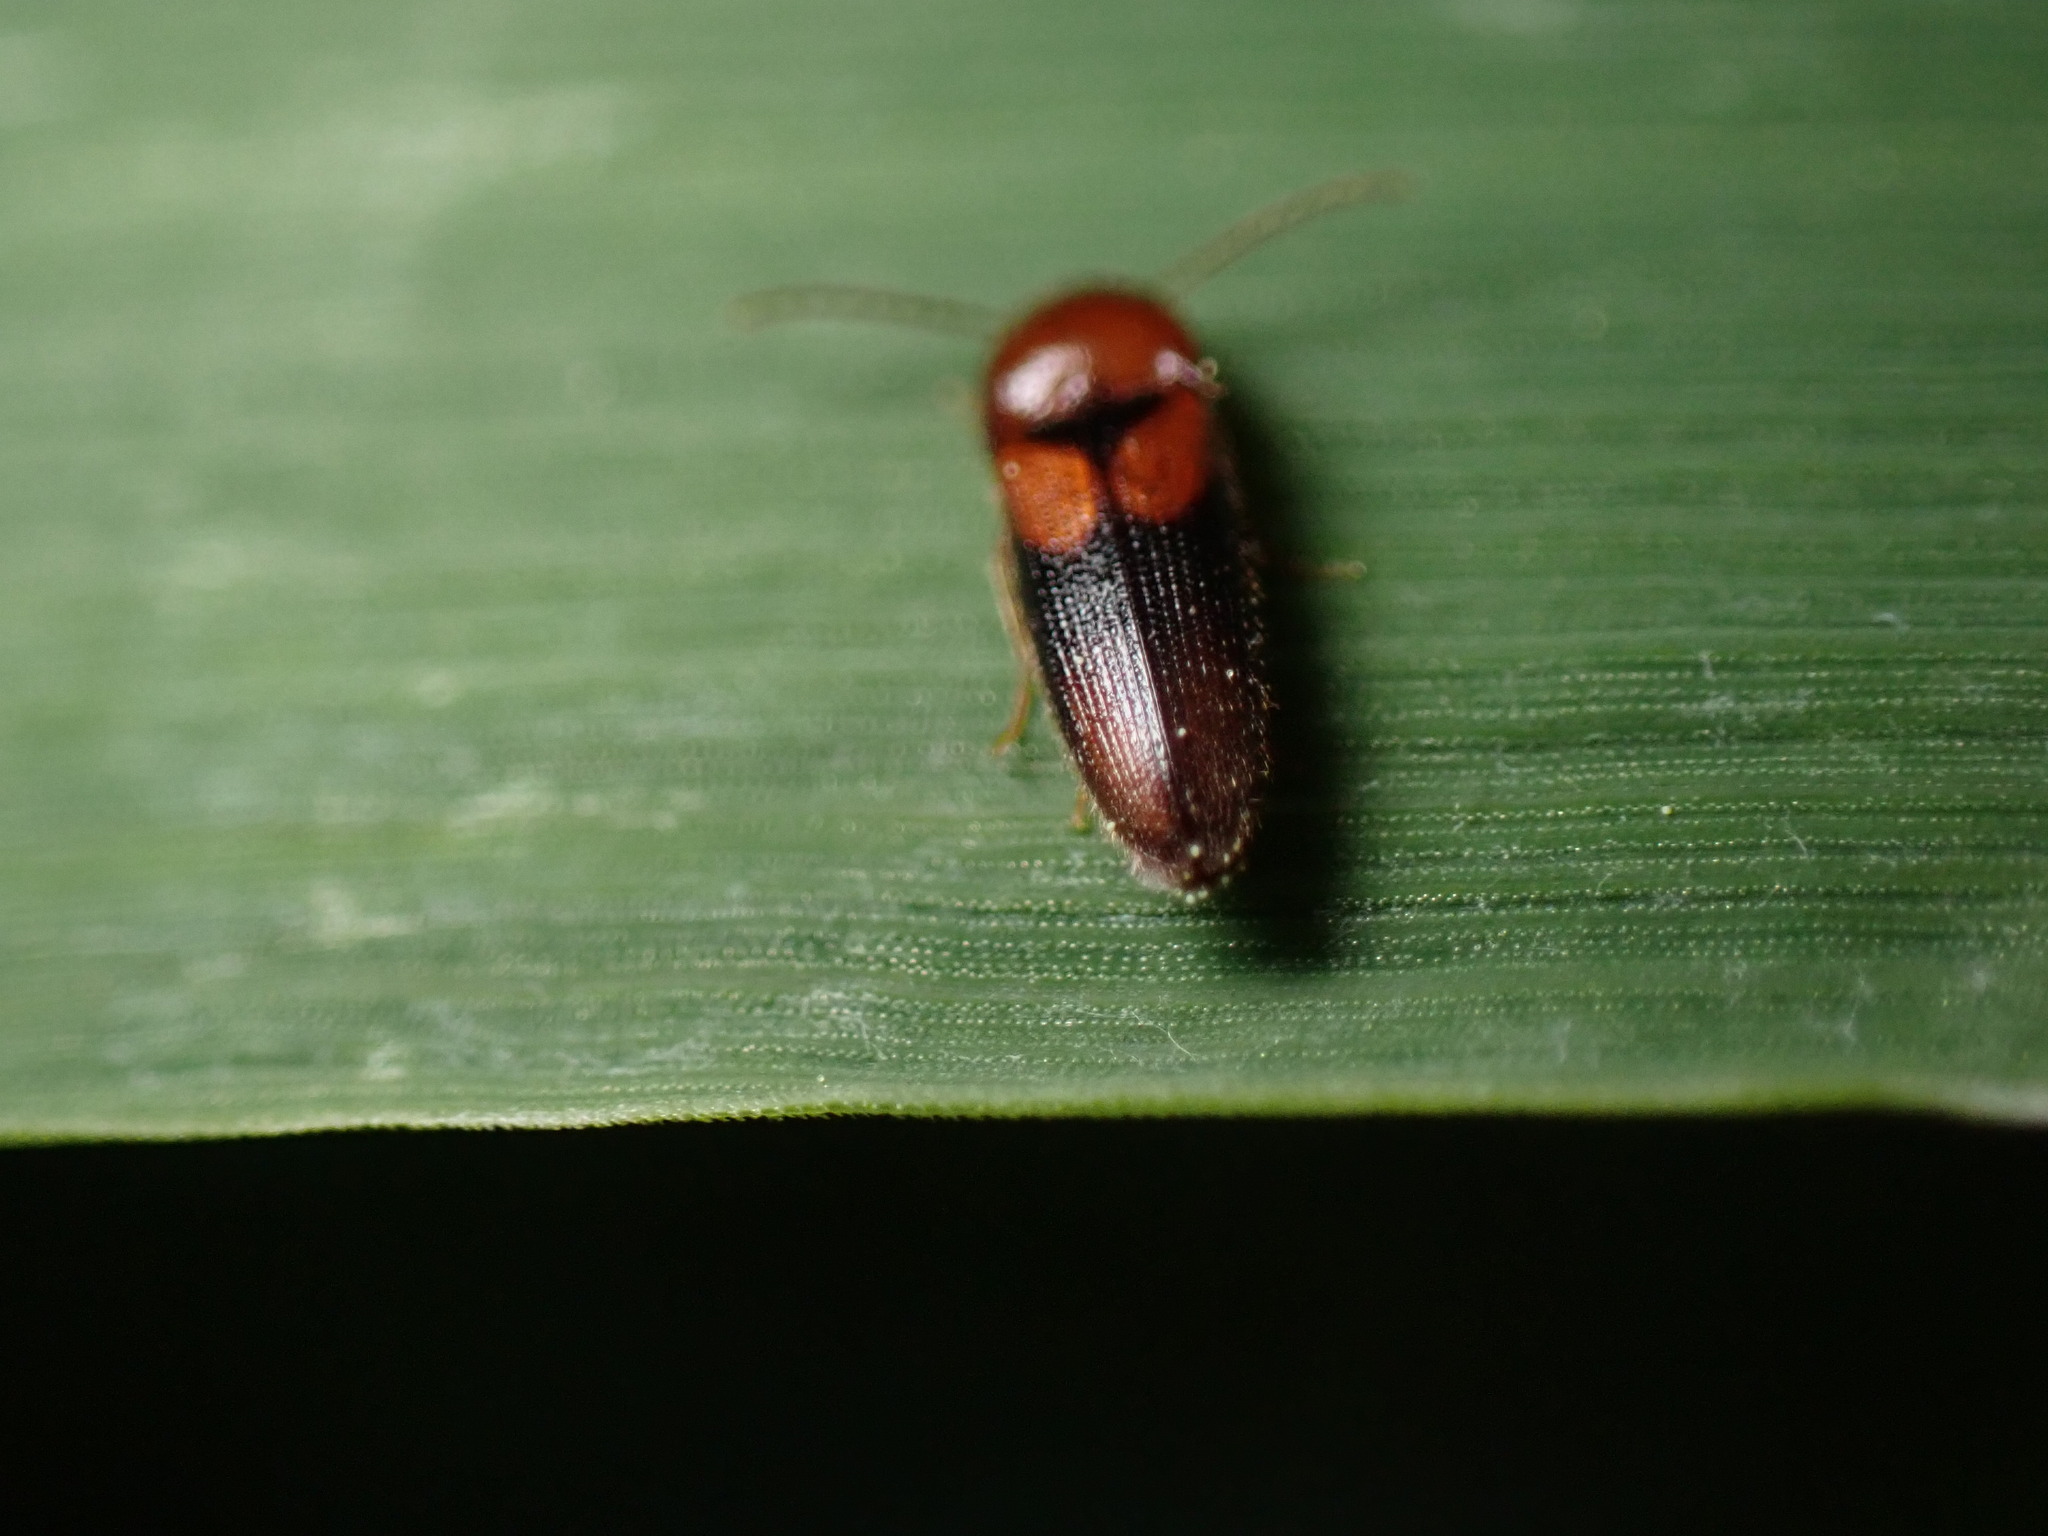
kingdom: Animalia
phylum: Arthropoda
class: Insecta
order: Coleoptera
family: Elateridae
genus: Ampedus
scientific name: Ampedus areolatus
